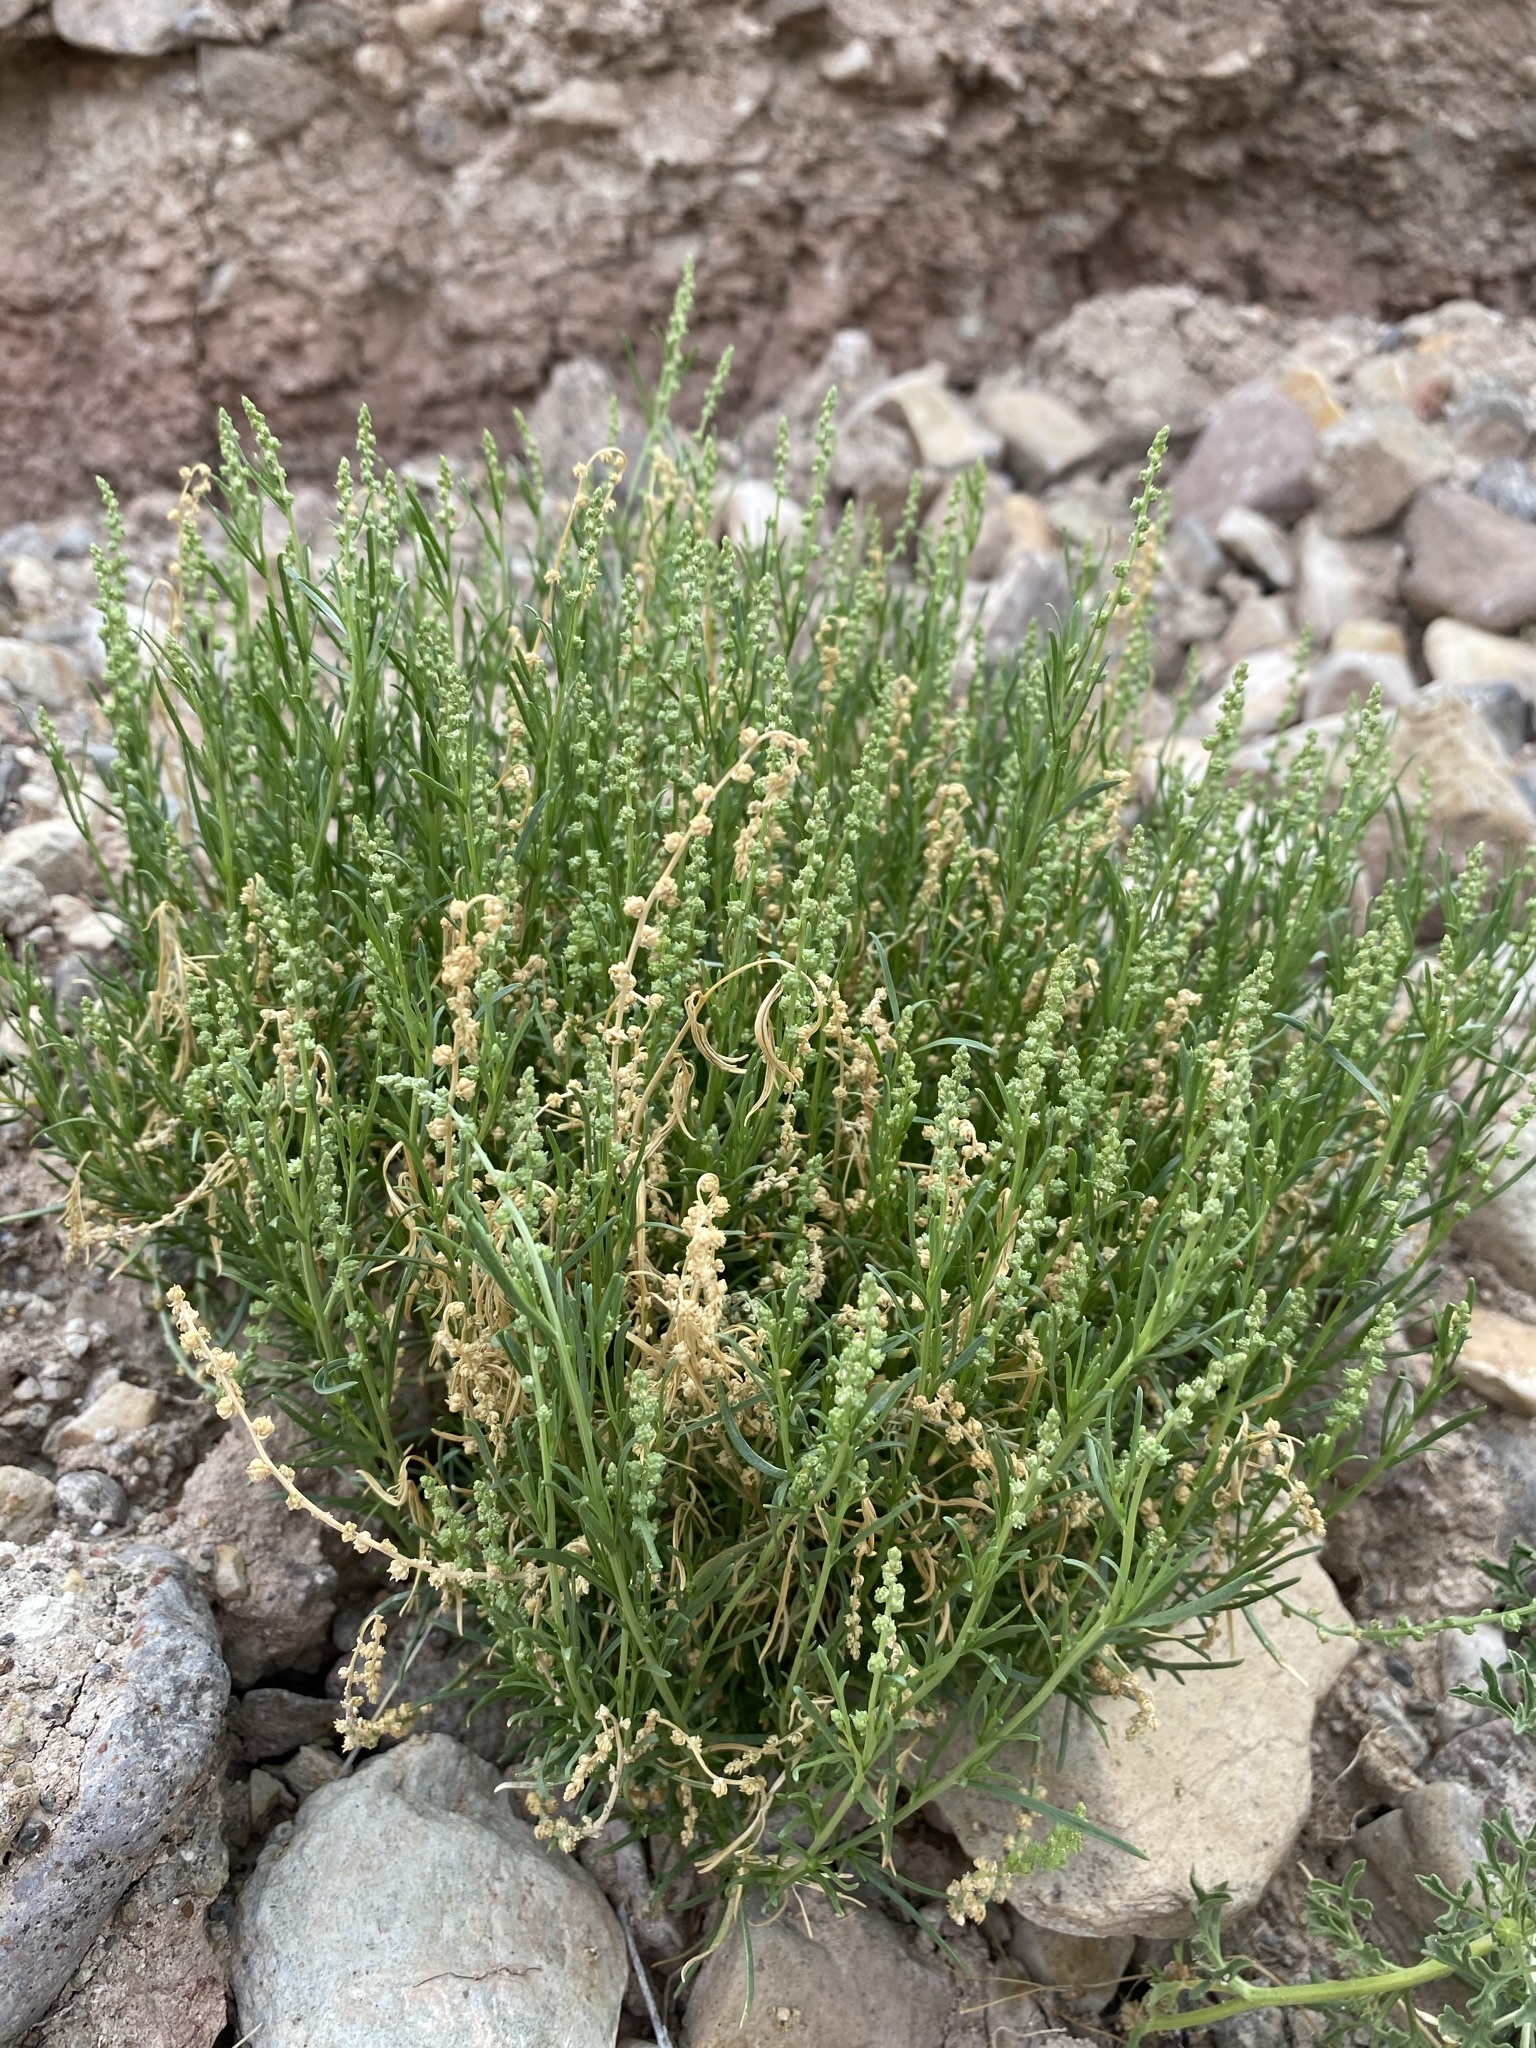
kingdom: Plantae
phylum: Tracheophyta
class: Magnoliopsida
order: Brassicales
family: Resedaceae
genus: Oligomeris
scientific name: Oligomeris linifolia
